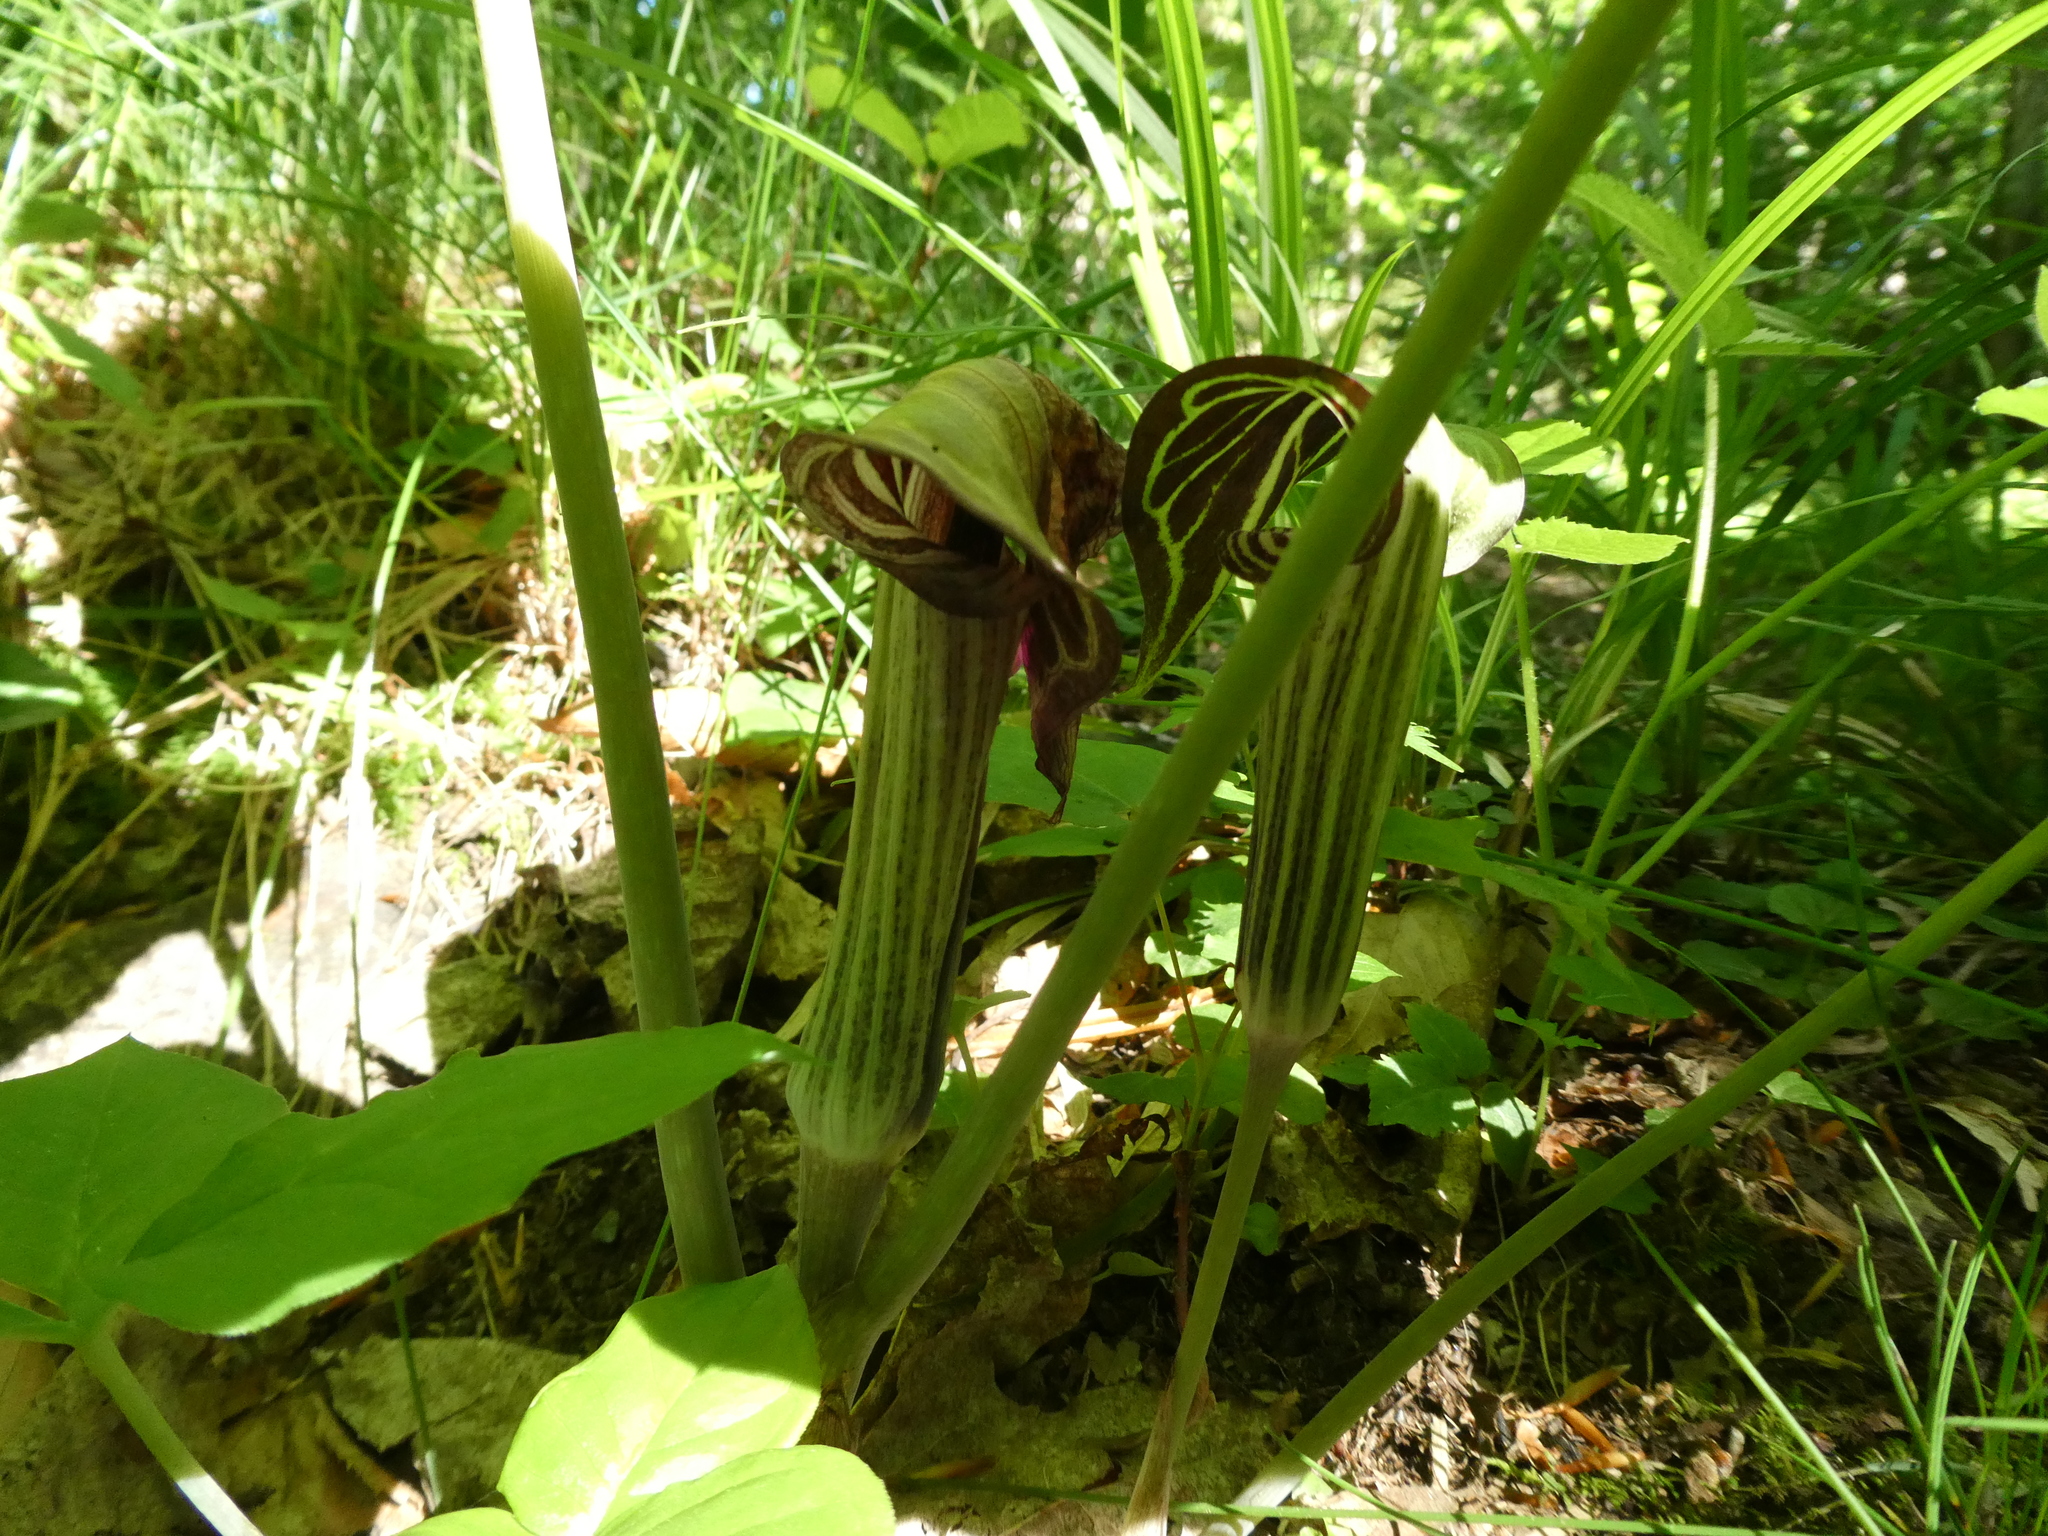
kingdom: Plantae
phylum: Tracheophyta
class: Liliopsida
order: Alismatales
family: Araceae
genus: Arisaema
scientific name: Arisaema triphyllum
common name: Jack-in-the-pulpit
